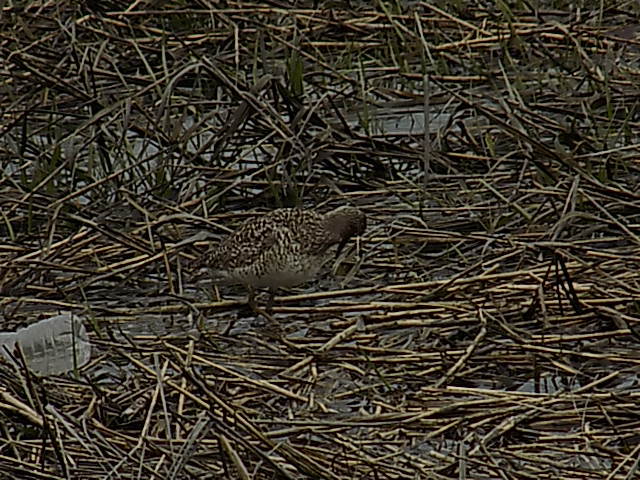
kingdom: Animalia
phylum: Chordata
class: Aves
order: Charadriiformes
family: Scolopacidae
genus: Tringa
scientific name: Tringa semipalmata
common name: Willet
